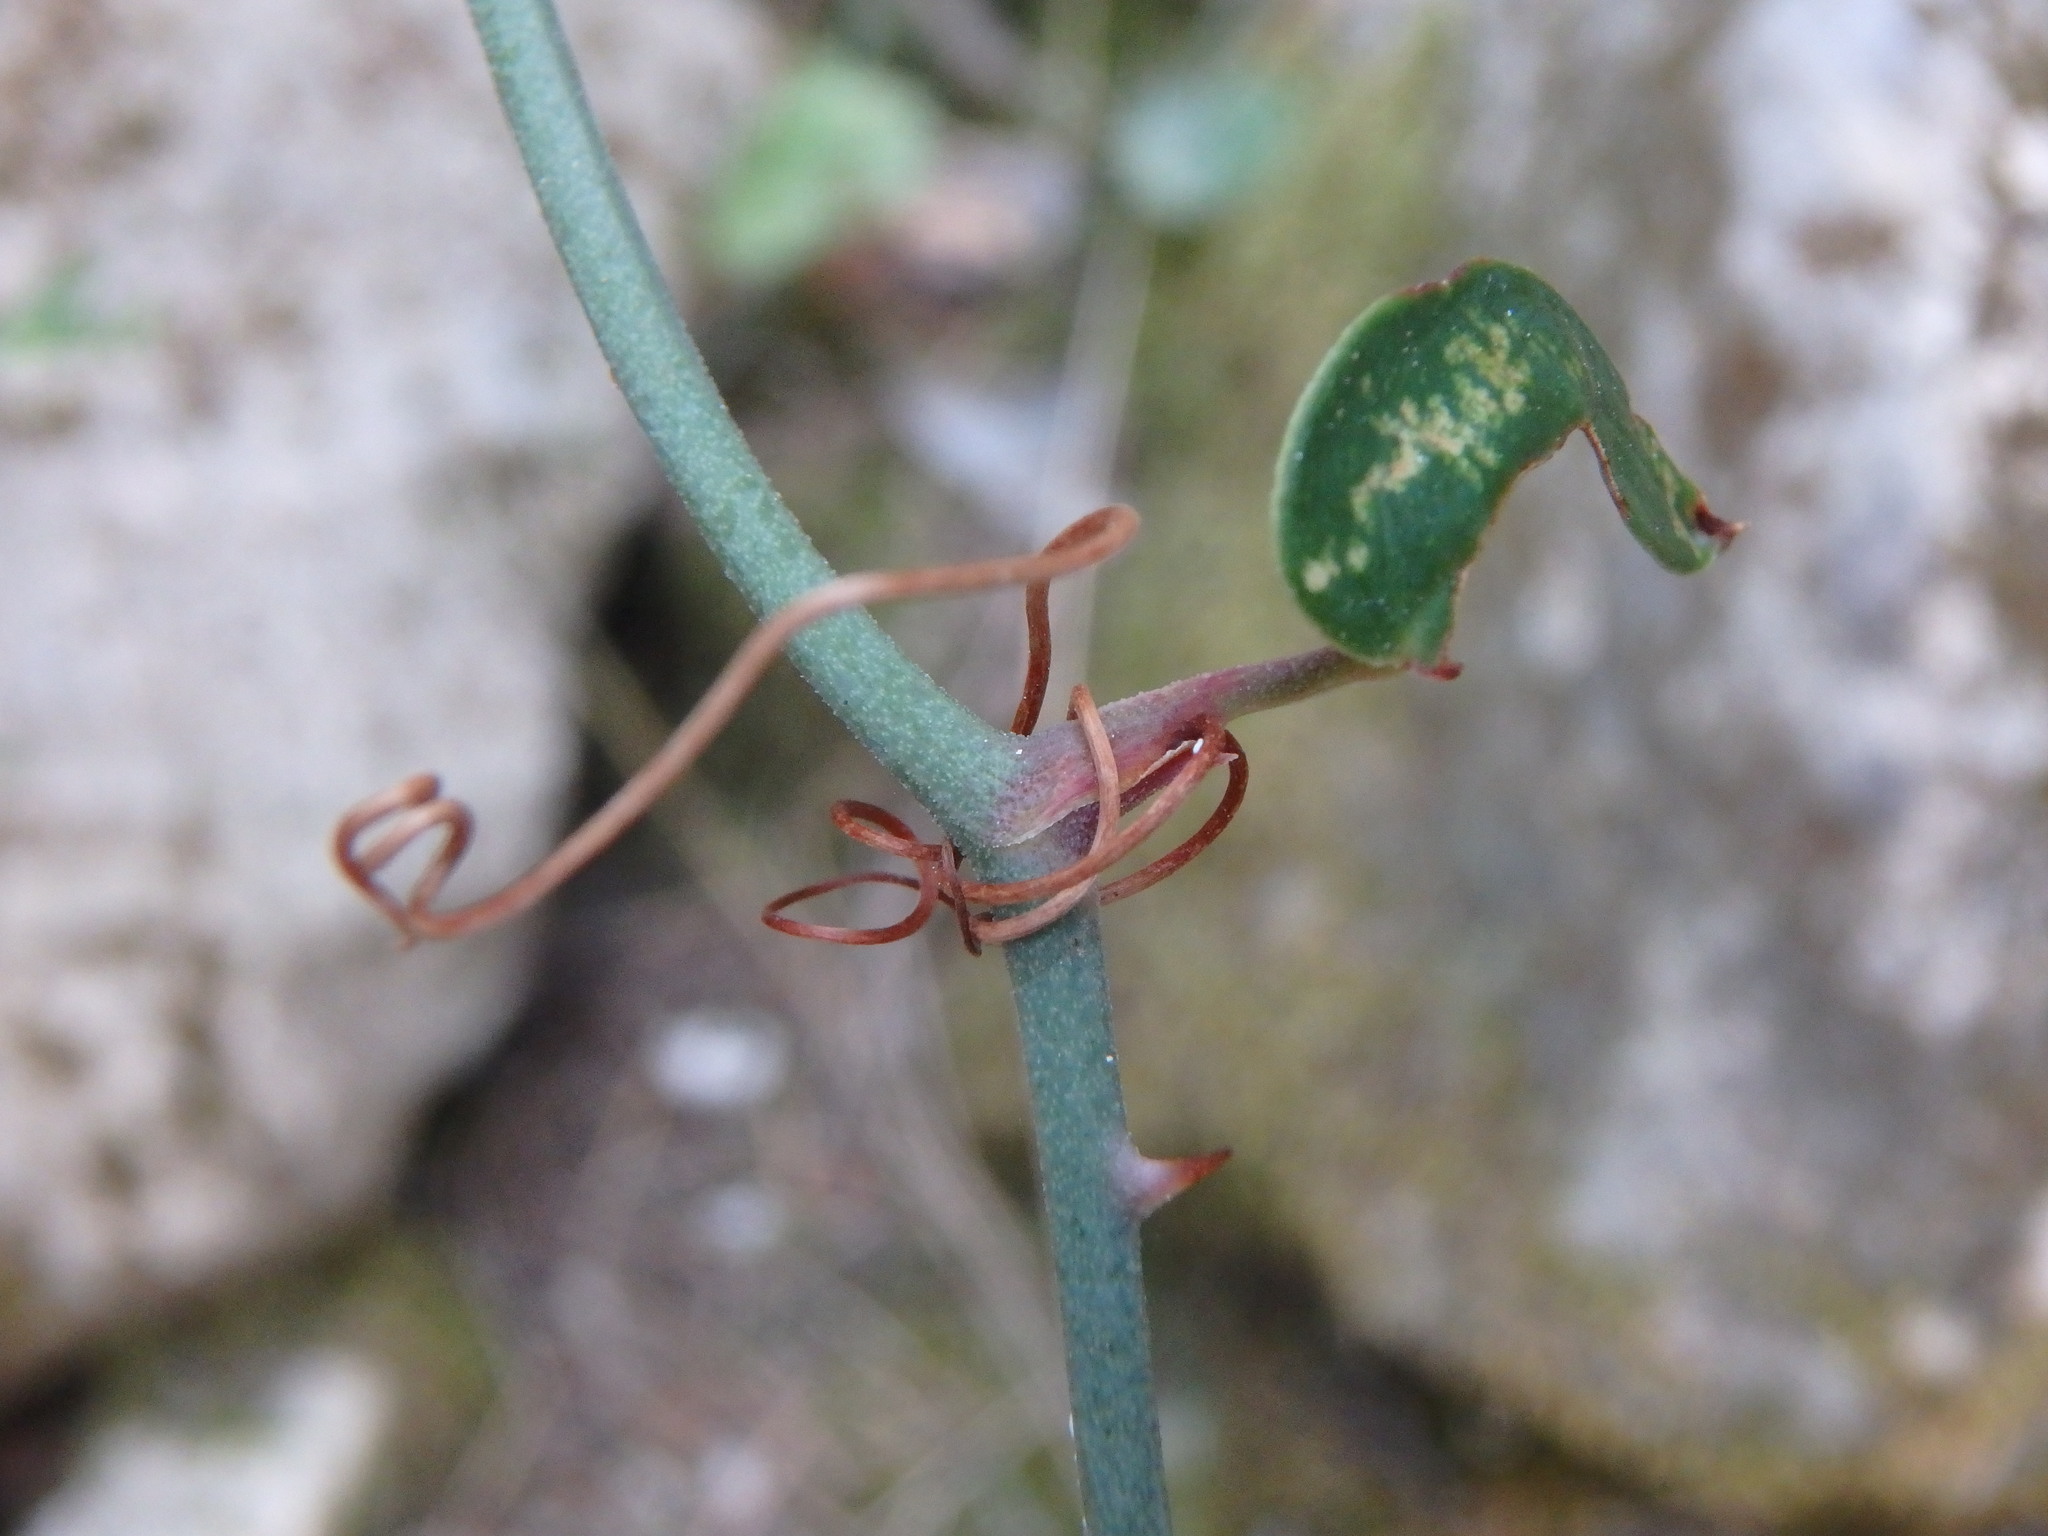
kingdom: Plantae
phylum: Tracheophyta
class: Liliopsida
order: Liliales
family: Smilacaceae
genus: Smilax
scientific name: Smilax aspera
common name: Common smilax
